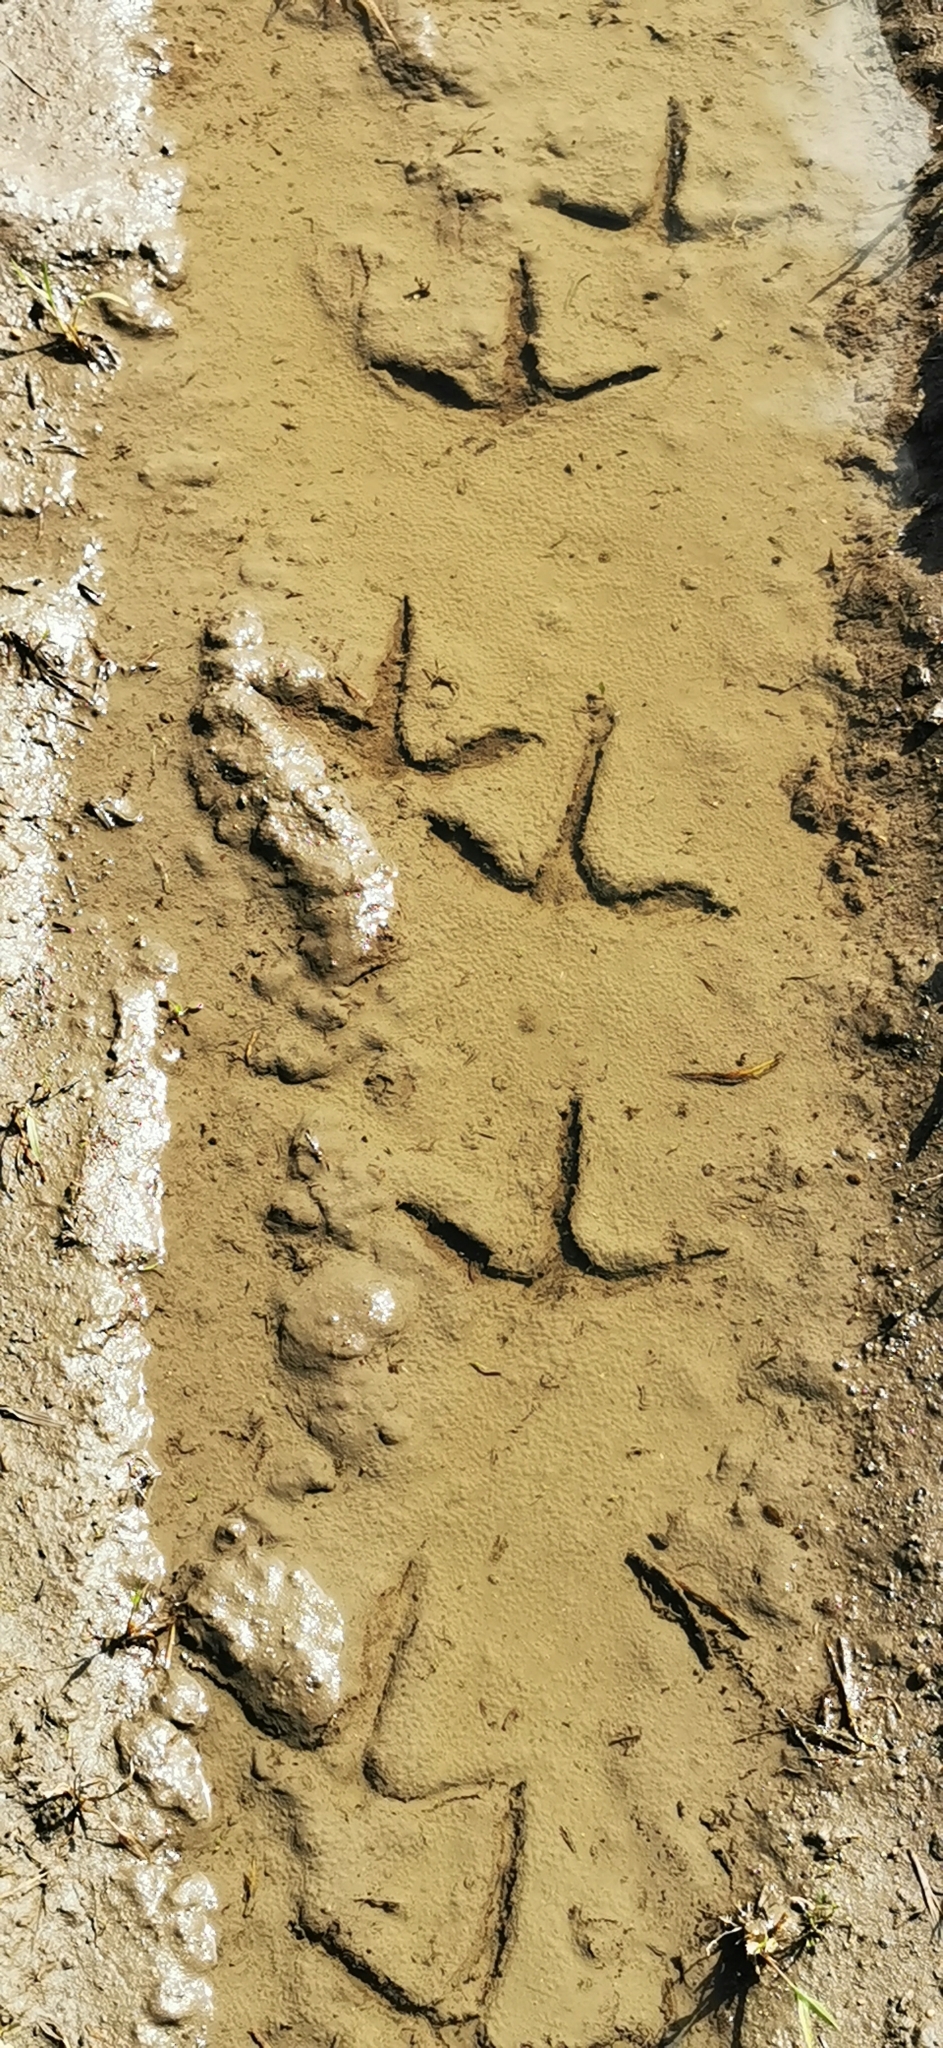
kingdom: Animalia
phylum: Chordata
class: Aves
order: Gruiformes
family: Gruidae
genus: Grus
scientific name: Grus grus
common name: Common crane
